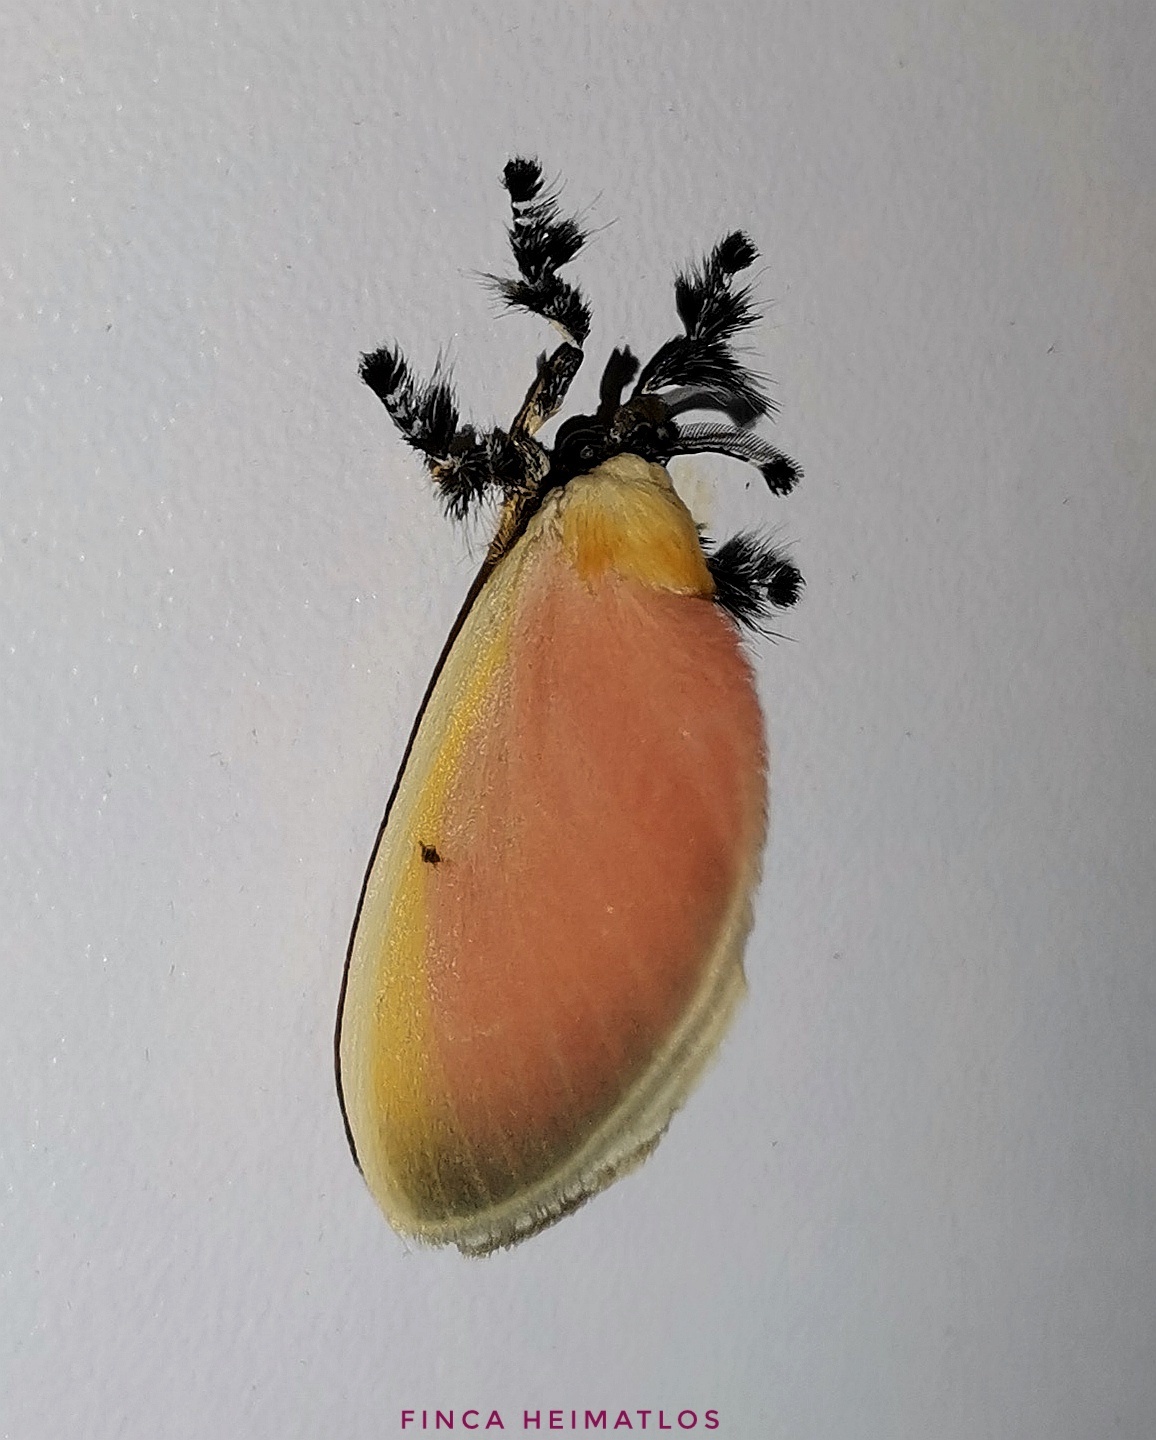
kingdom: Animalia
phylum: Arthropoda
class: Insecta
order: Lepidoptera
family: Dalceridae
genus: Dalcera
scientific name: Dalcera abrasa
